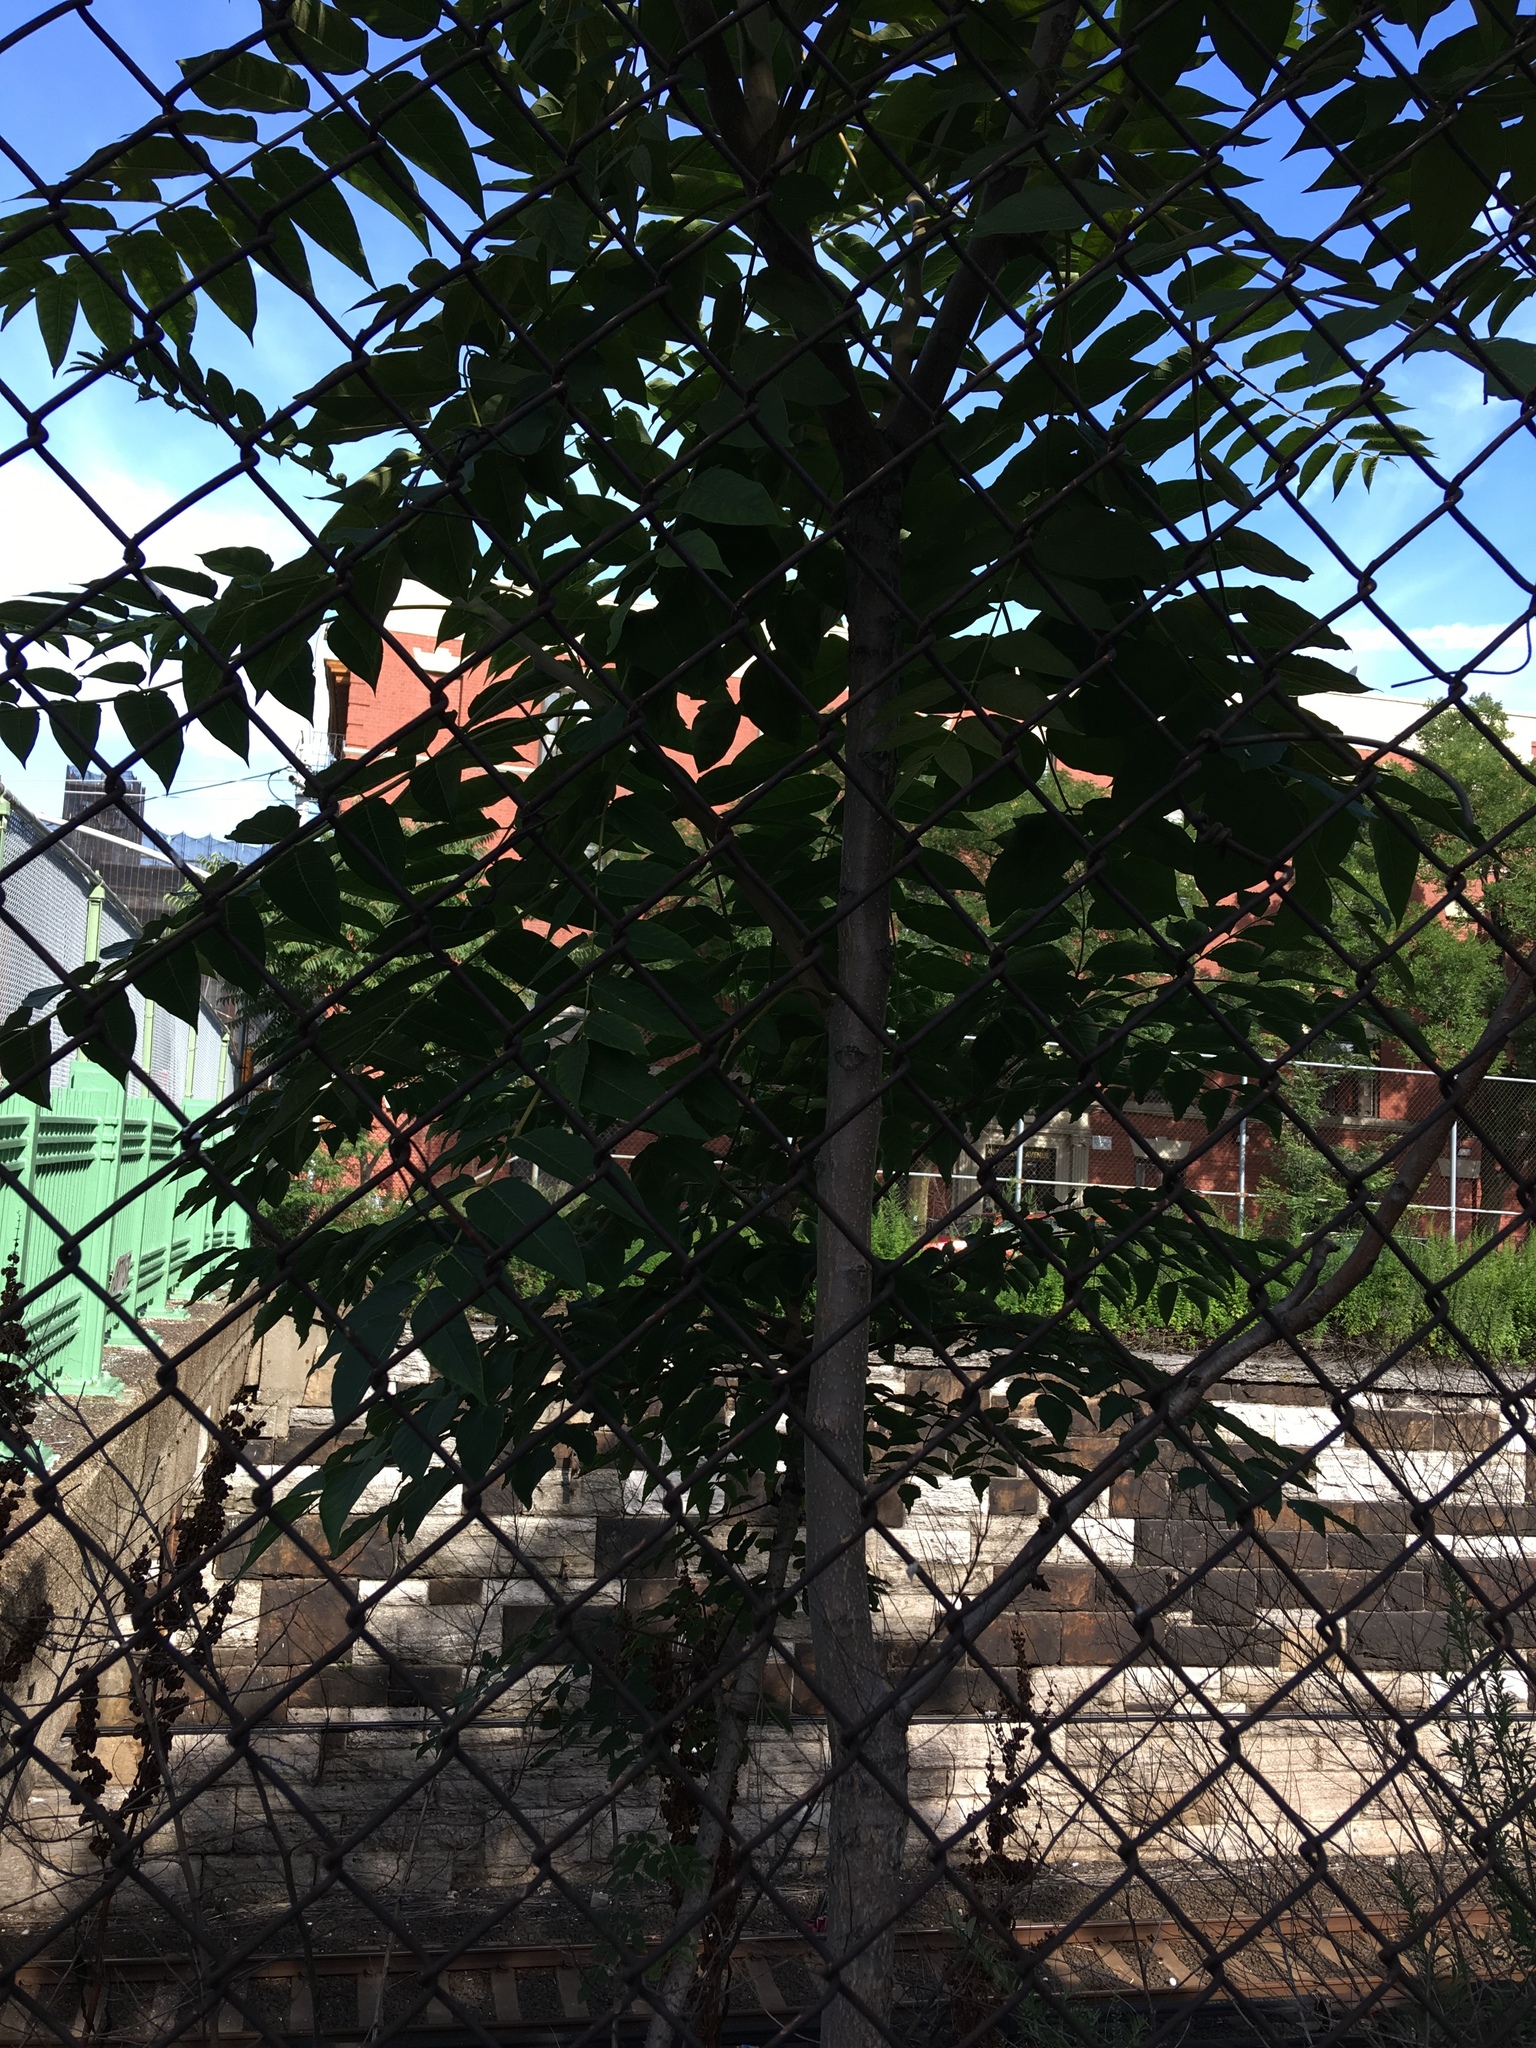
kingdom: Plantae
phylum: Tracheophyta
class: Magnoliopsida
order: Sapindales
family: Simaroubaceae
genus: Ailanthus
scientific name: Ailanthus altissima
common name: Tree-of-heaven
